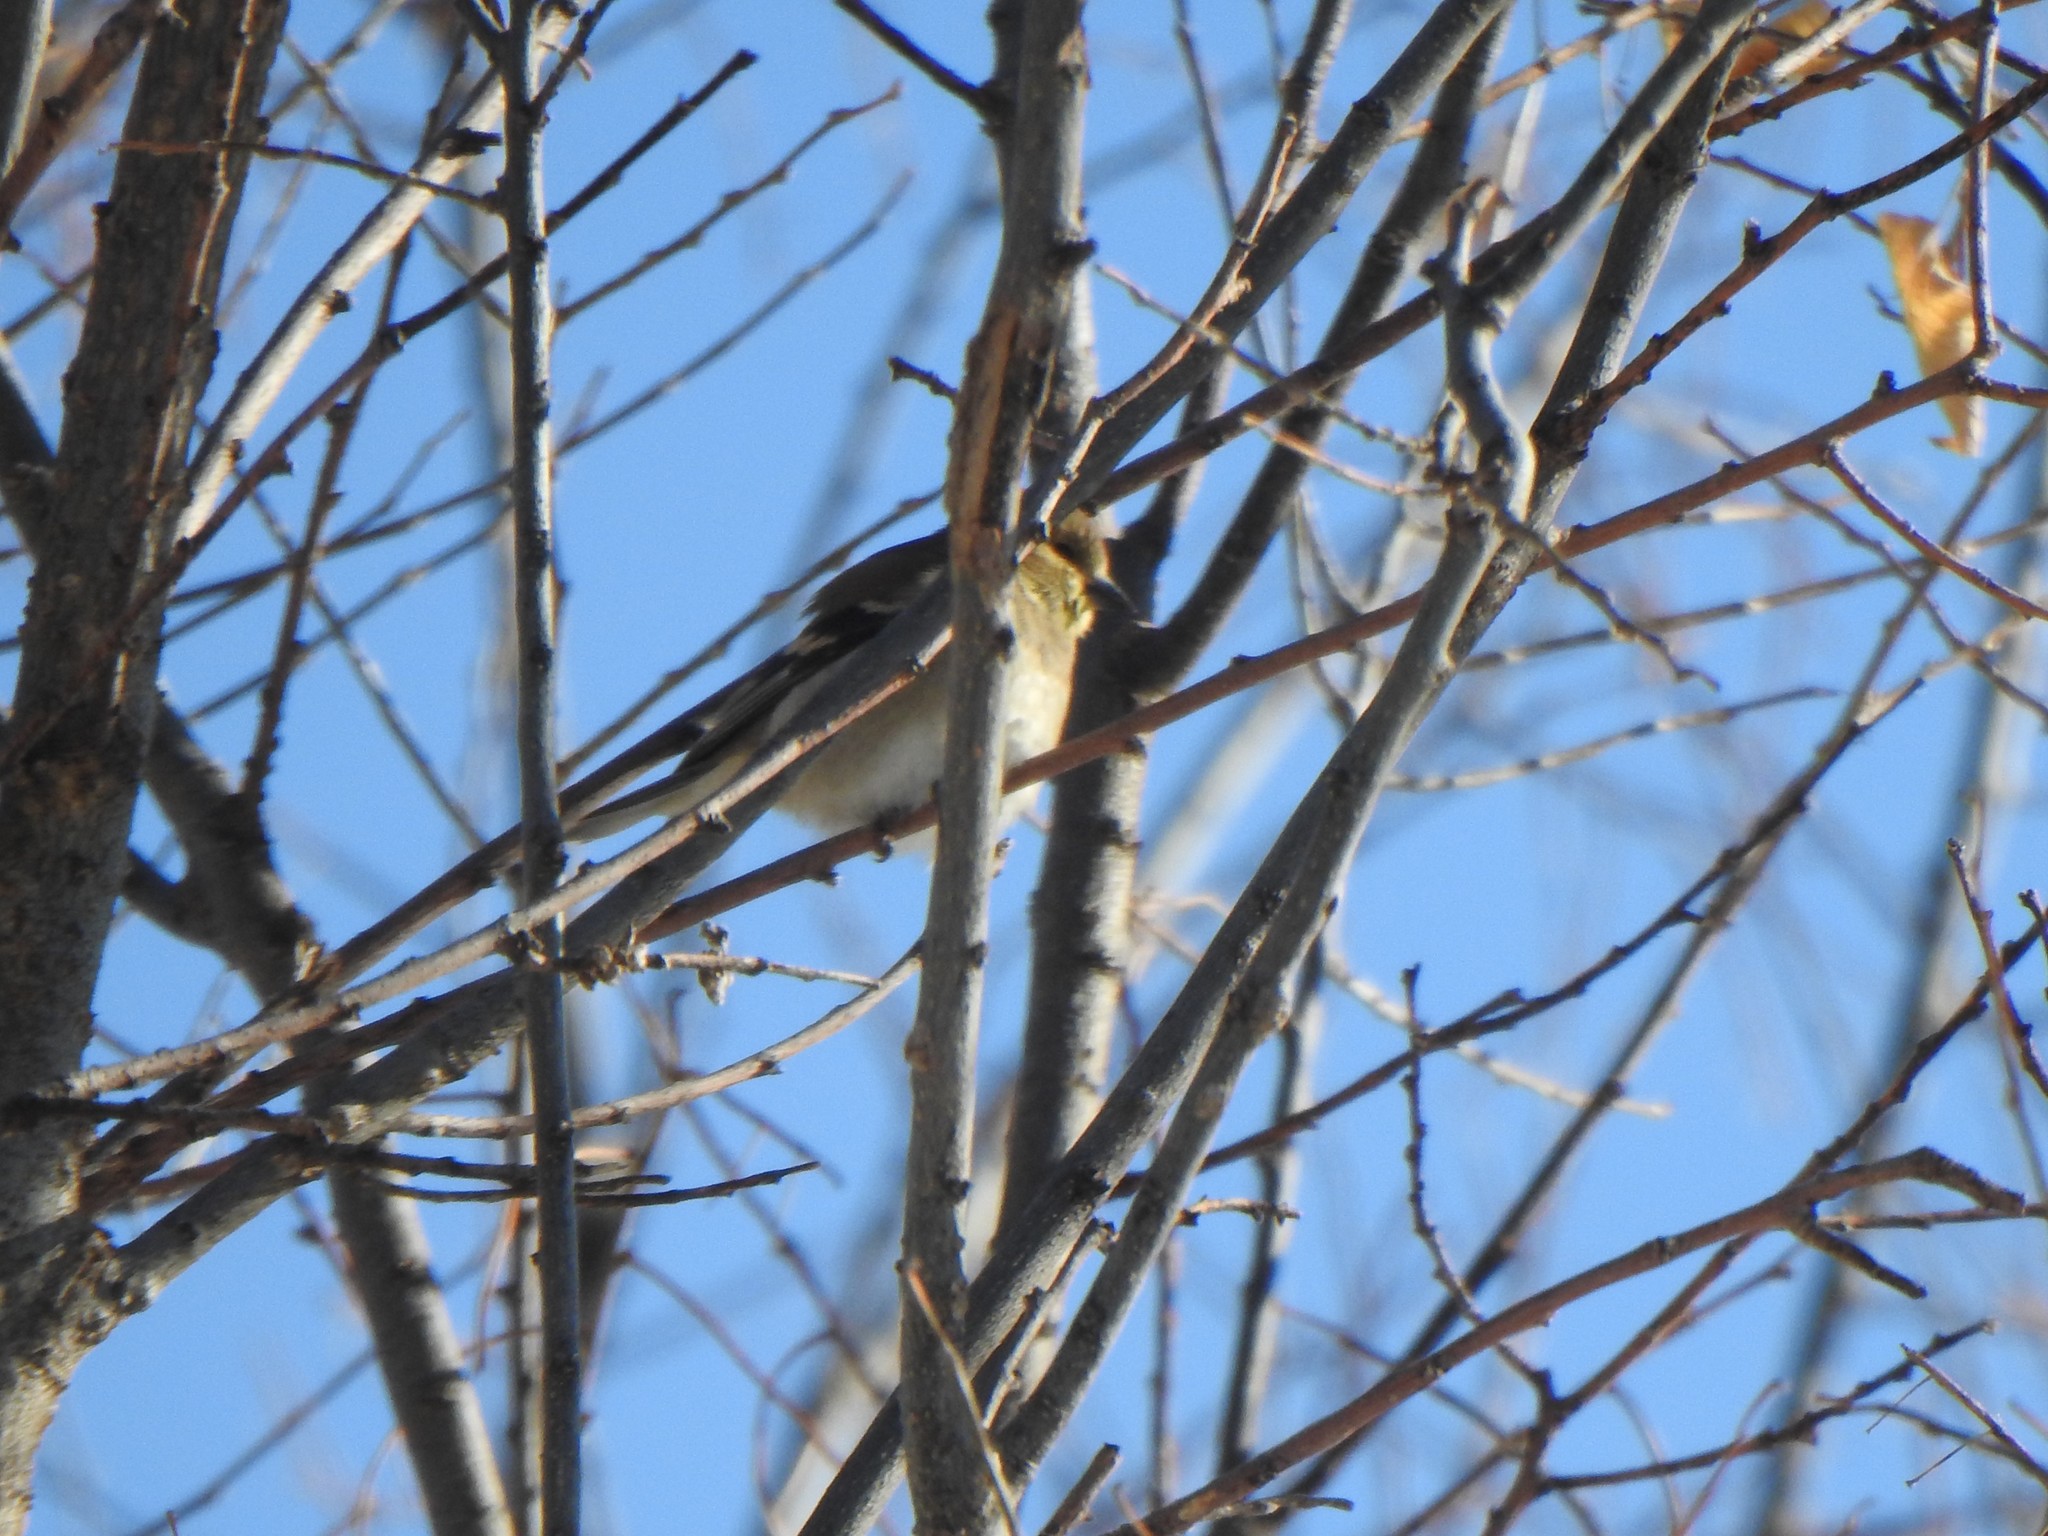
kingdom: Animalia
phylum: Chordata
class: Aves
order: Passeriformes
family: Fringillidae
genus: Spinus
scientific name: Spinus tristis
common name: American goldfinch
